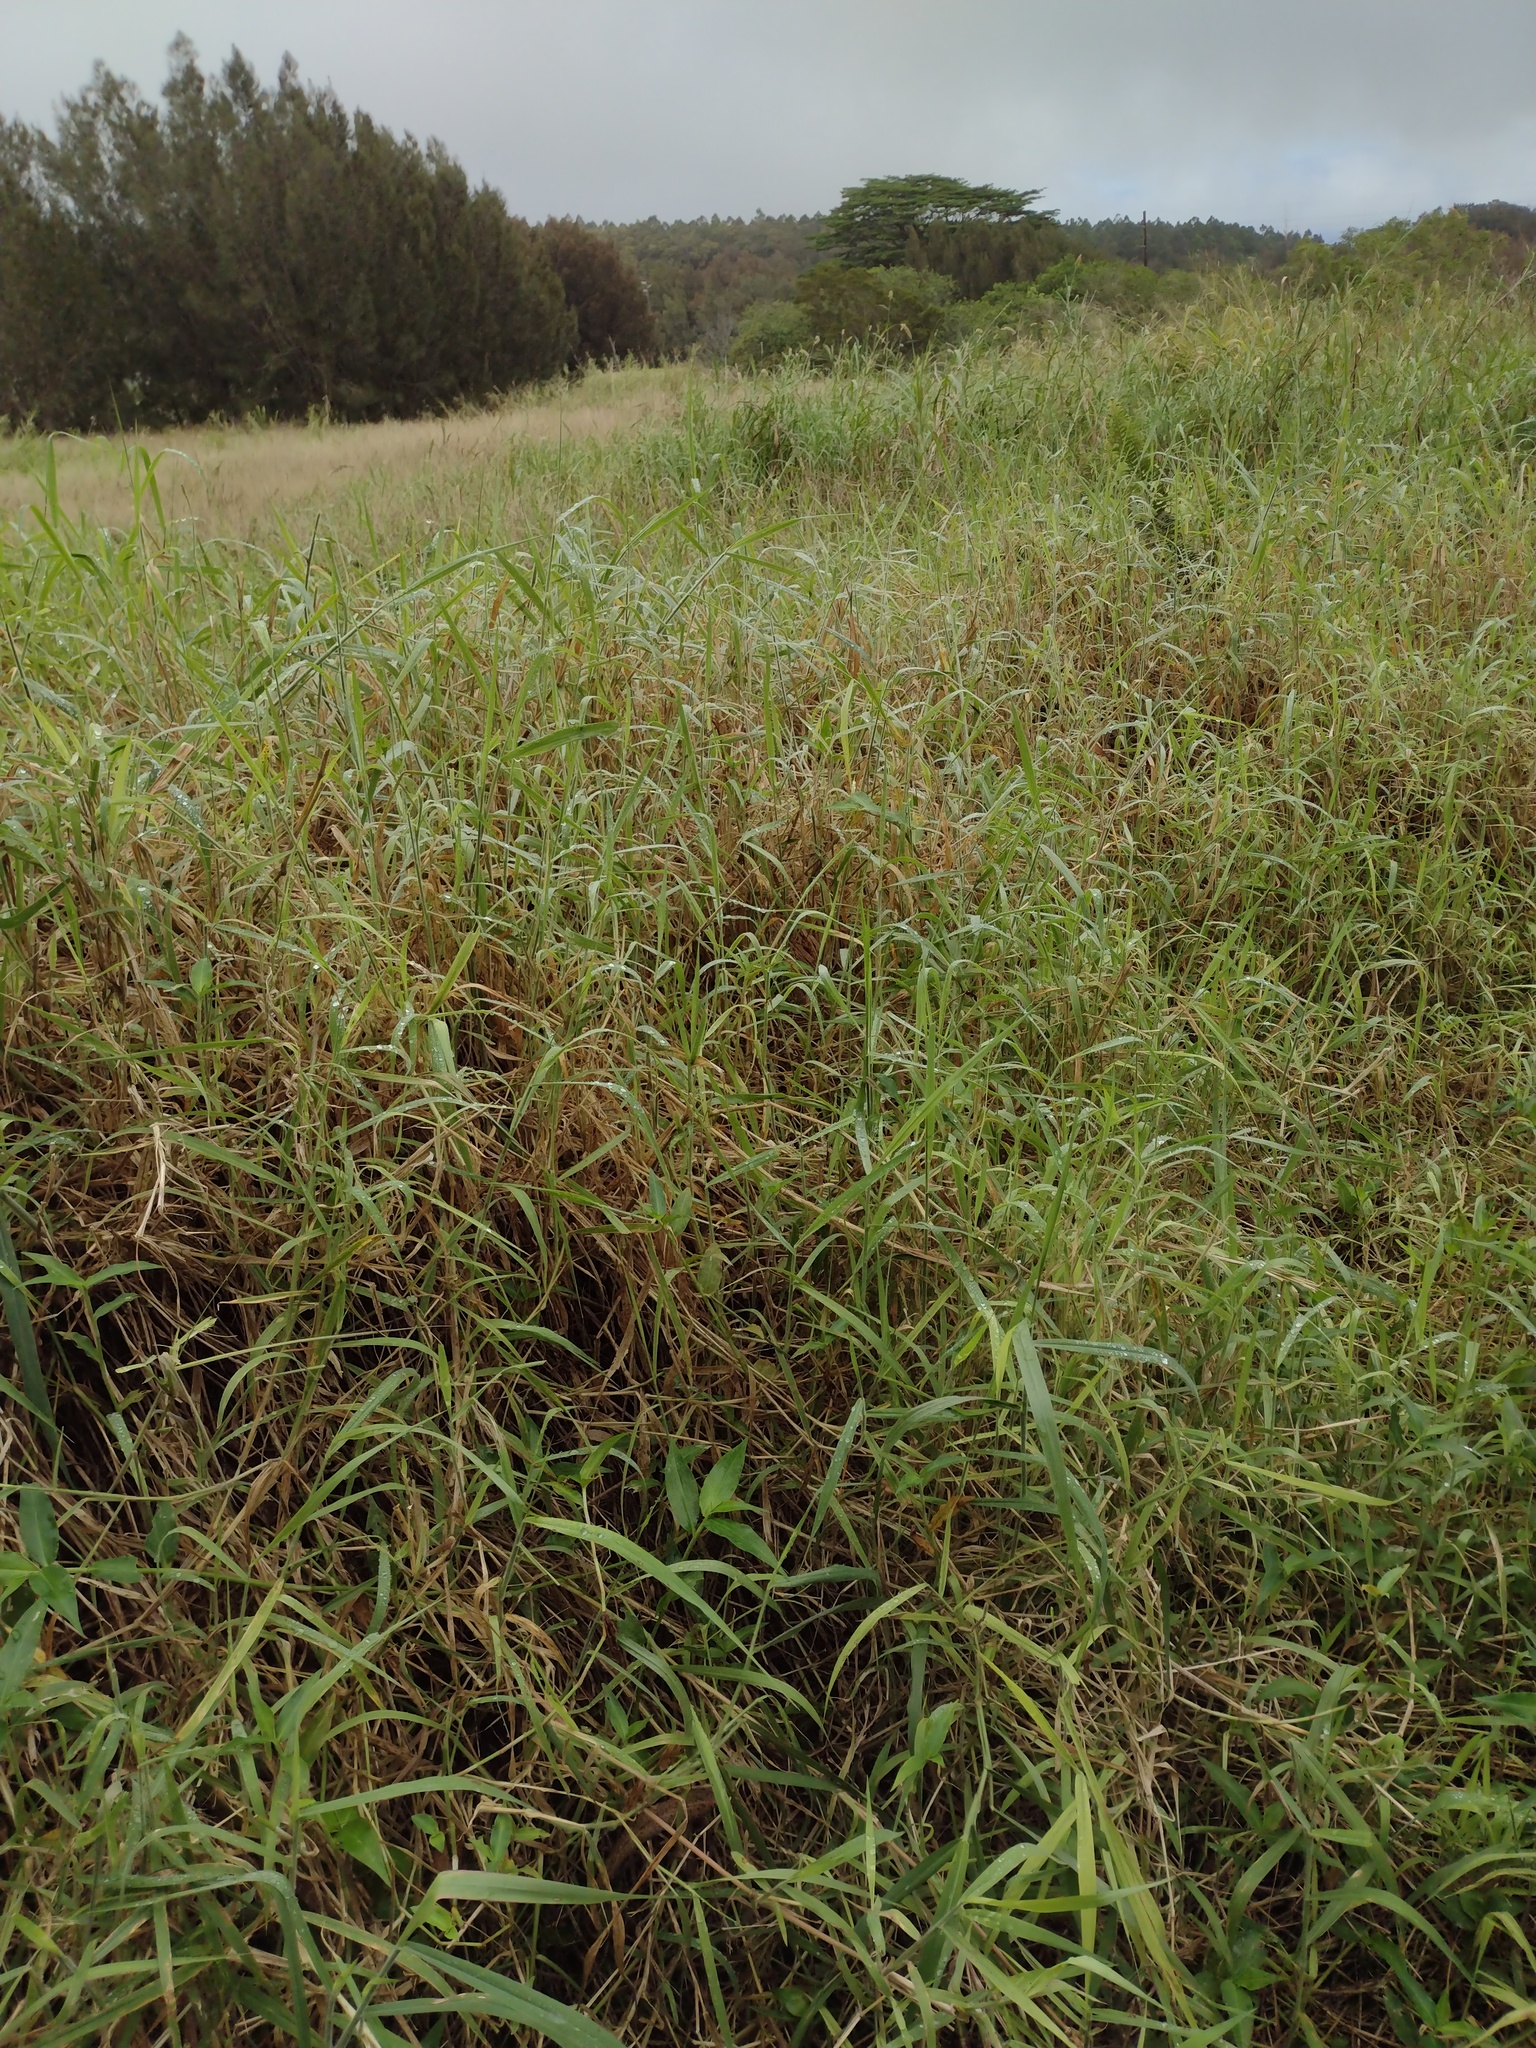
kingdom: Plantae
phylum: Tracheophyta
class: Liliopsida
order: Poales
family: Poaceae
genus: Urochloa
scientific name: Urochloa mutica
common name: Para grass
